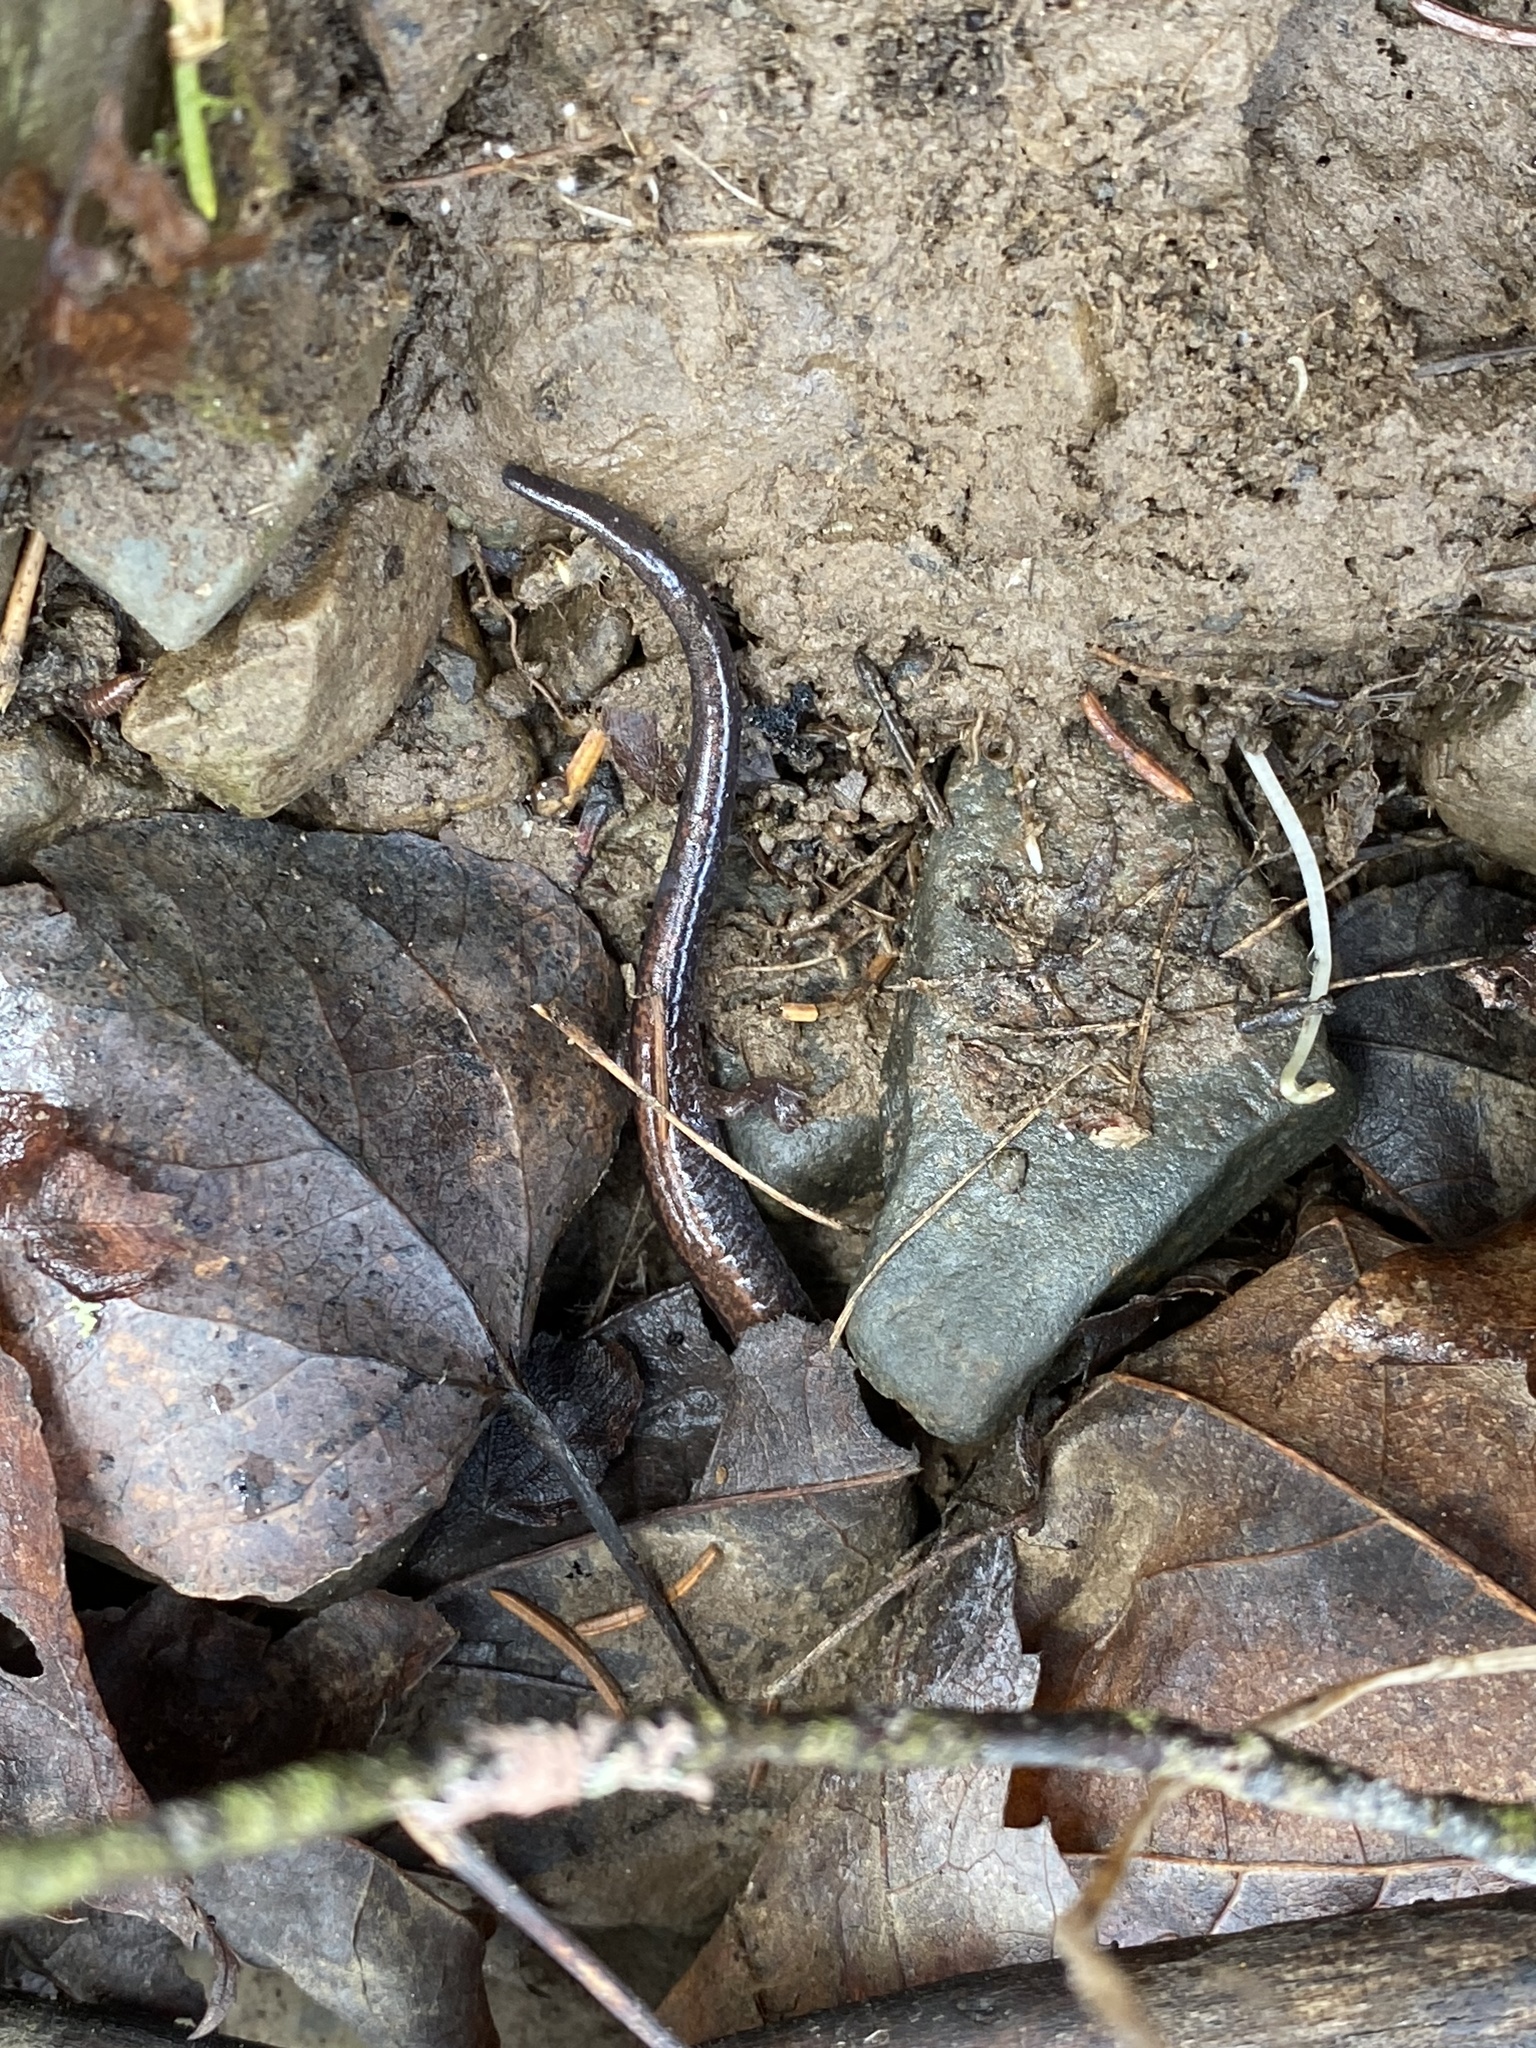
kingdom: Animalia
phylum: Chordata
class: Amphibia
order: Caudata
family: Plethodontidae
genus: Plethodon
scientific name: Plethodon cinereus
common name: Redback salamander
